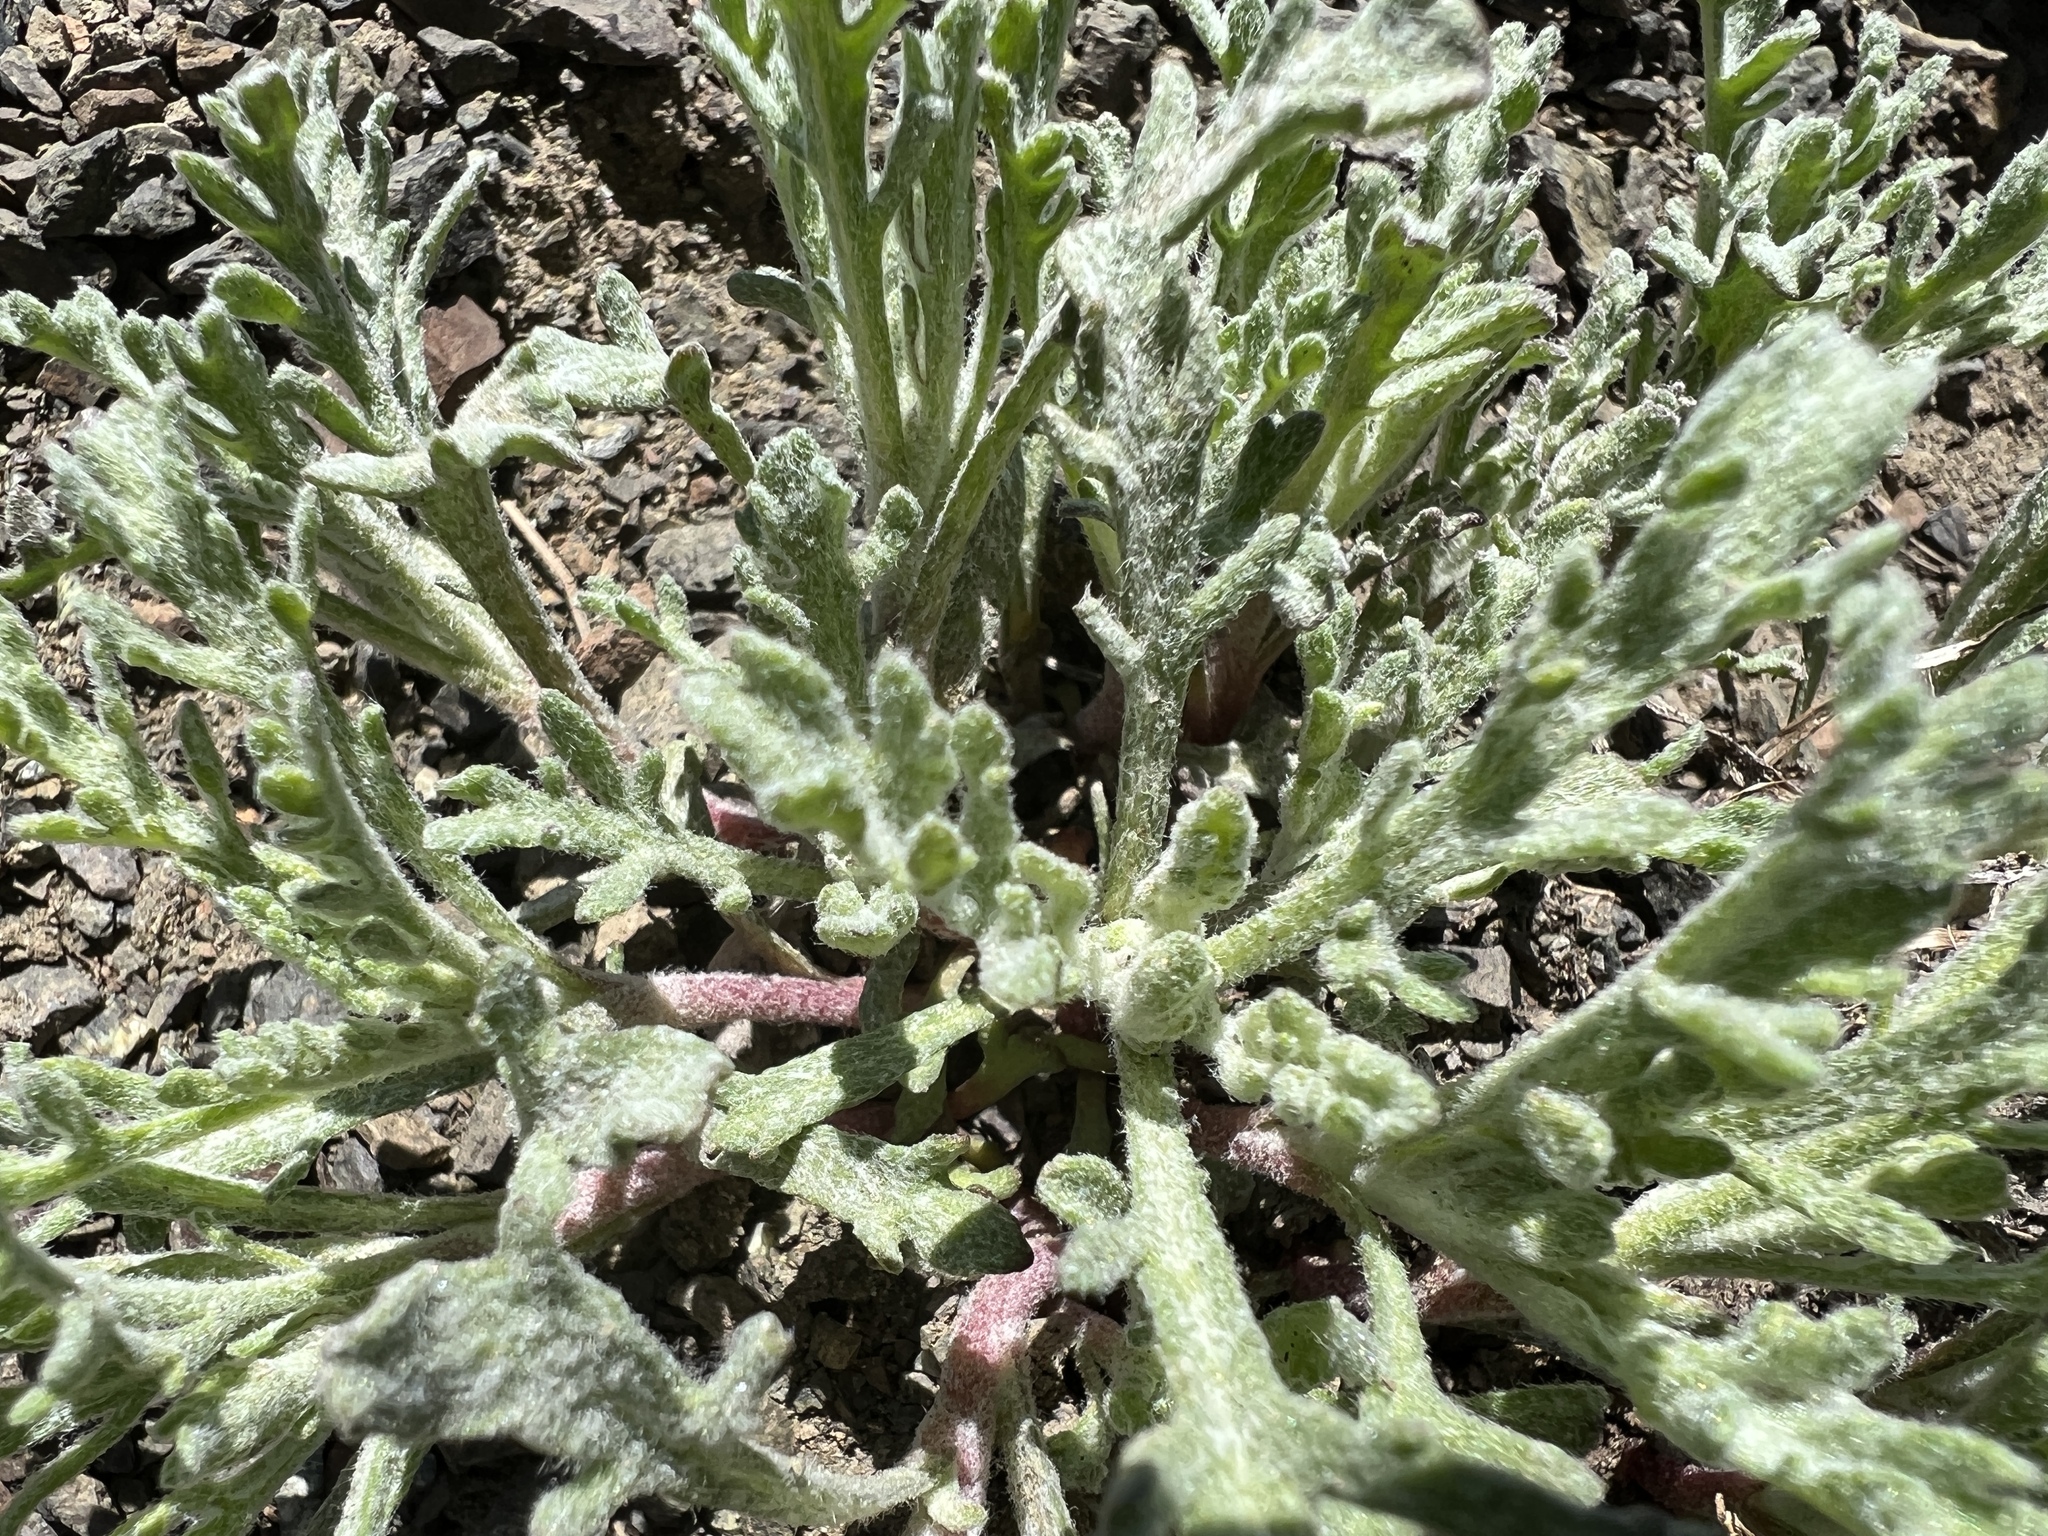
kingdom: Plantae
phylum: Tracheophyta
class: Magnoliopsida
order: Asterales
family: Asteraceae
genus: Chaenactis
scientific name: Chaenactis thompsonii
